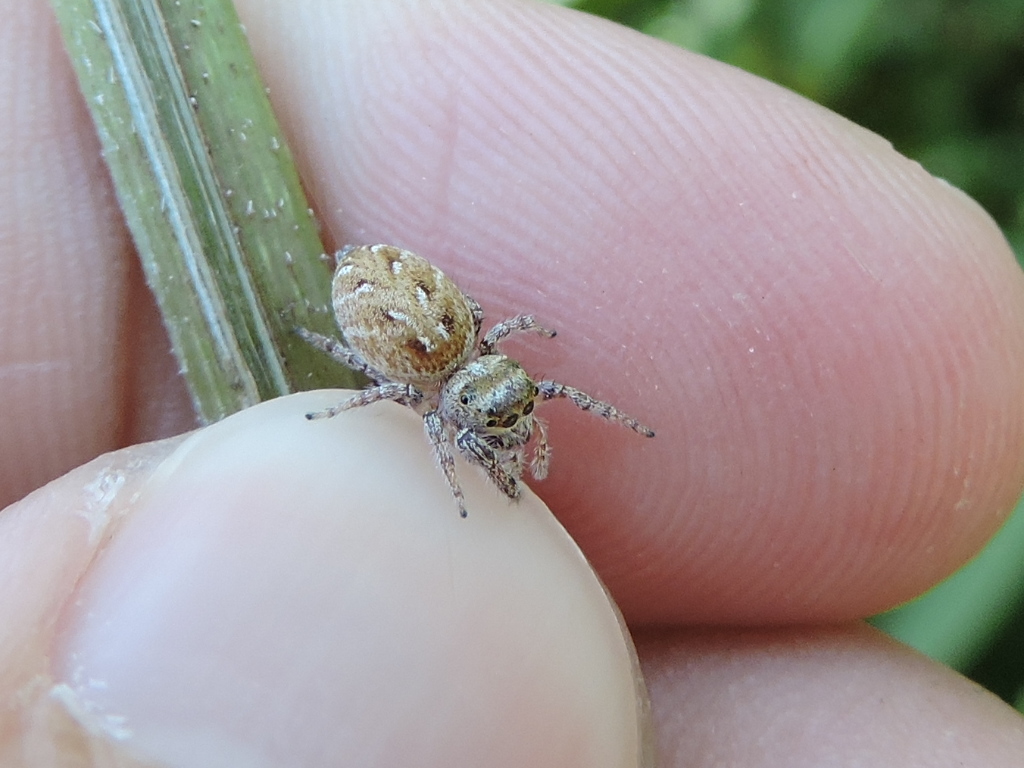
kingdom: Animalia
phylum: Arthropoda
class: Arachnida
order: Araneae
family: Salticidae
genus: Eris
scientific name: Eris militaris
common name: Bronze jumper
